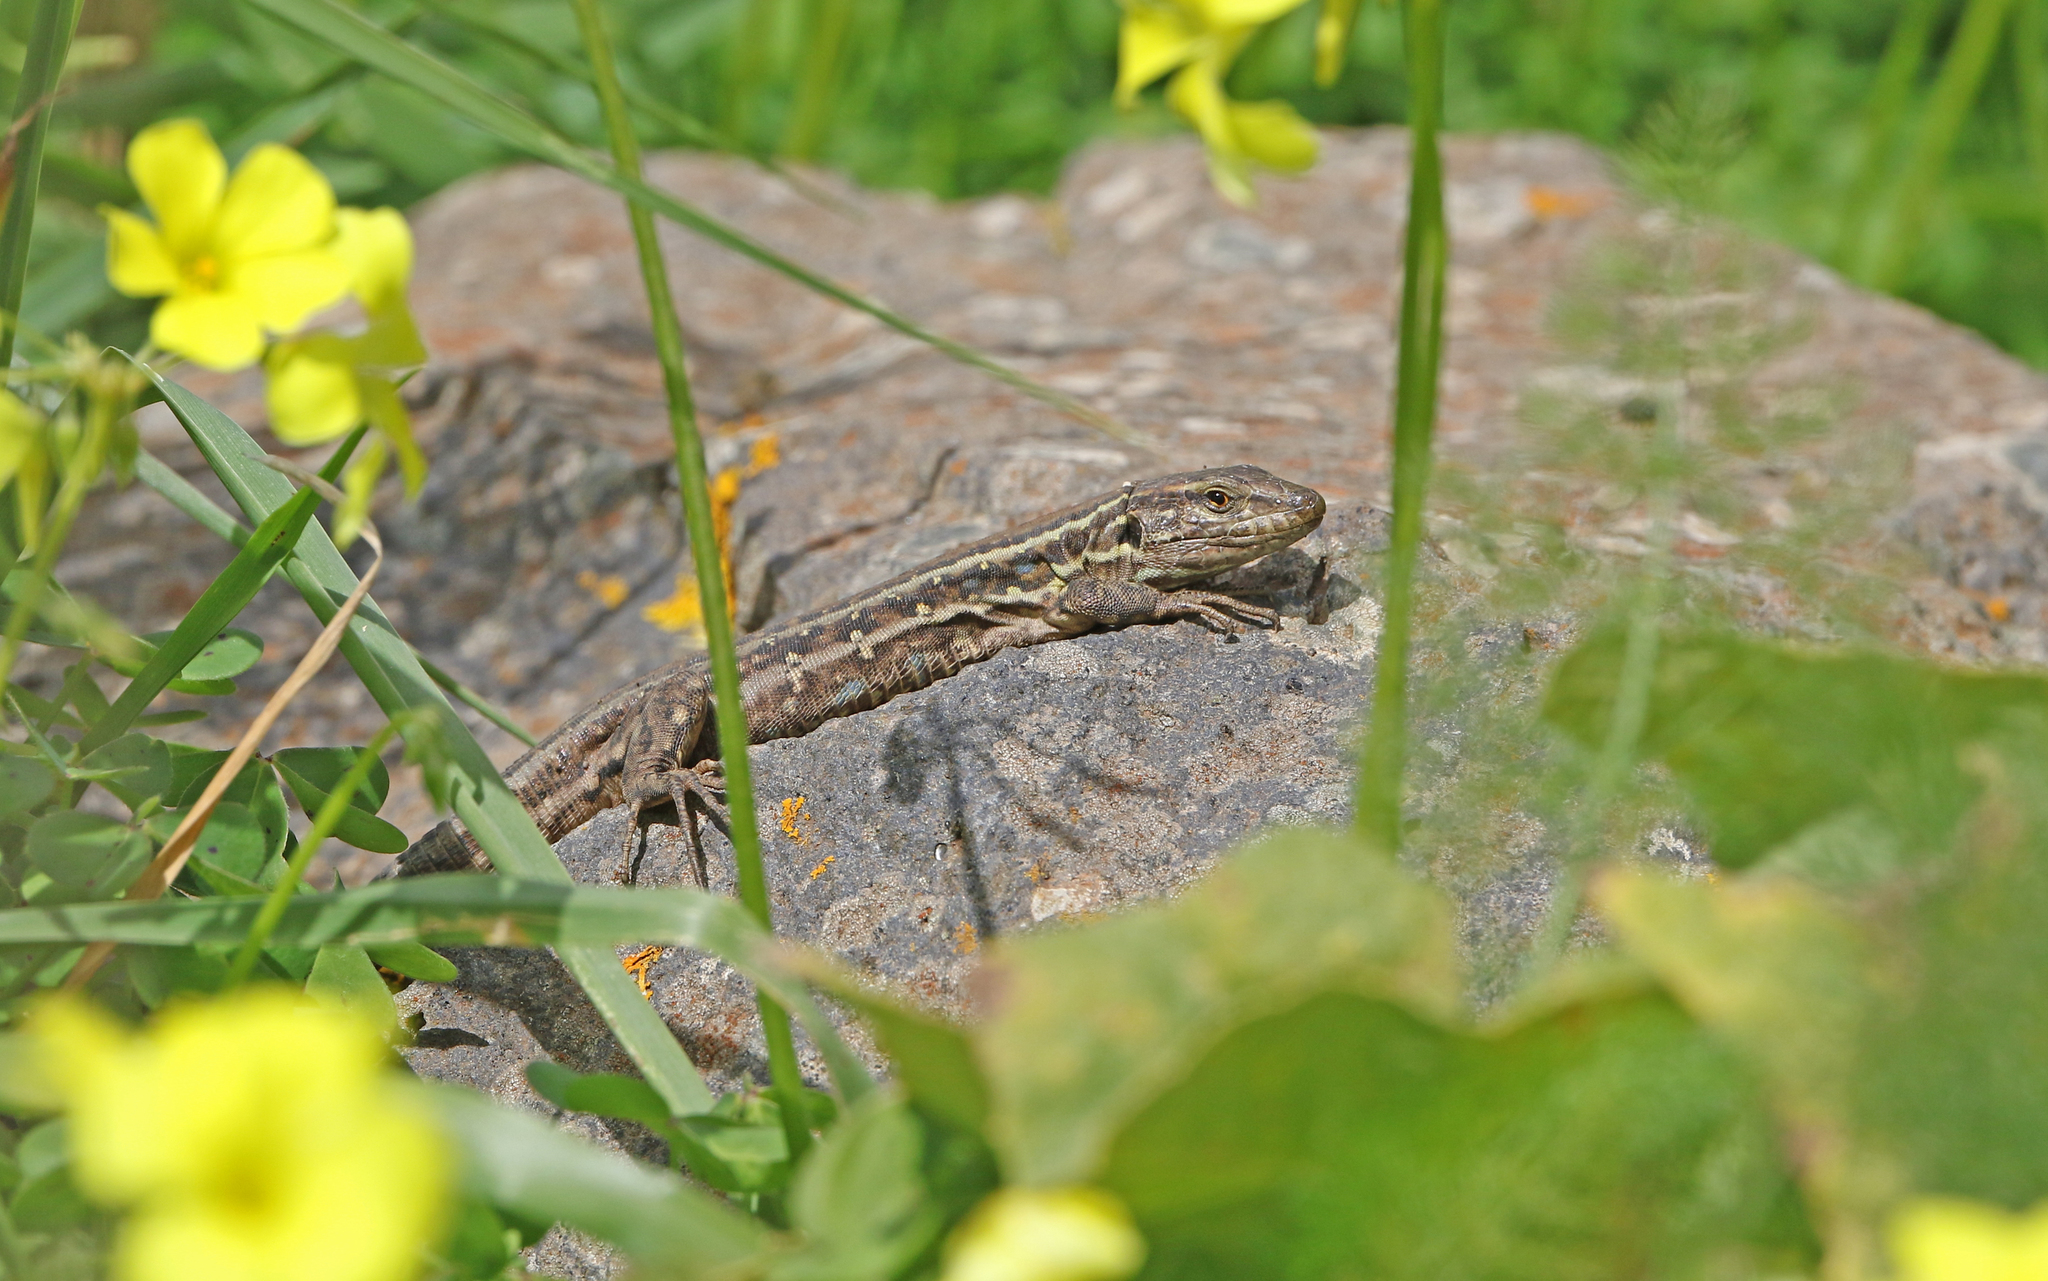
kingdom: Animalia
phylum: Chordata
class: Squamata
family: Lacertidae
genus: Gallotia
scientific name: Gallotia galloti
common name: Gallot's lizard
